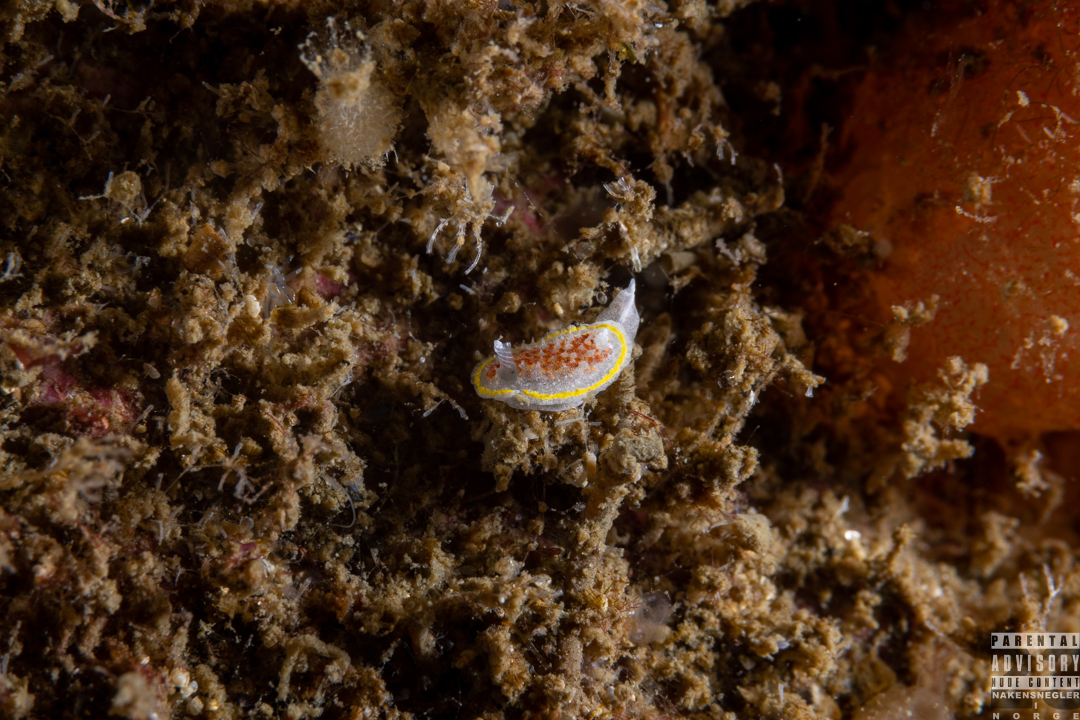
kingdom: Animalia
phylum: Mollusca
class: Gastropoda
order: Nudibranchia
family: Calycidorididae
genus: Diaphorodoris
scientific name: Diaphorodoris luteocincta
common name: Fried egg nudibranch
